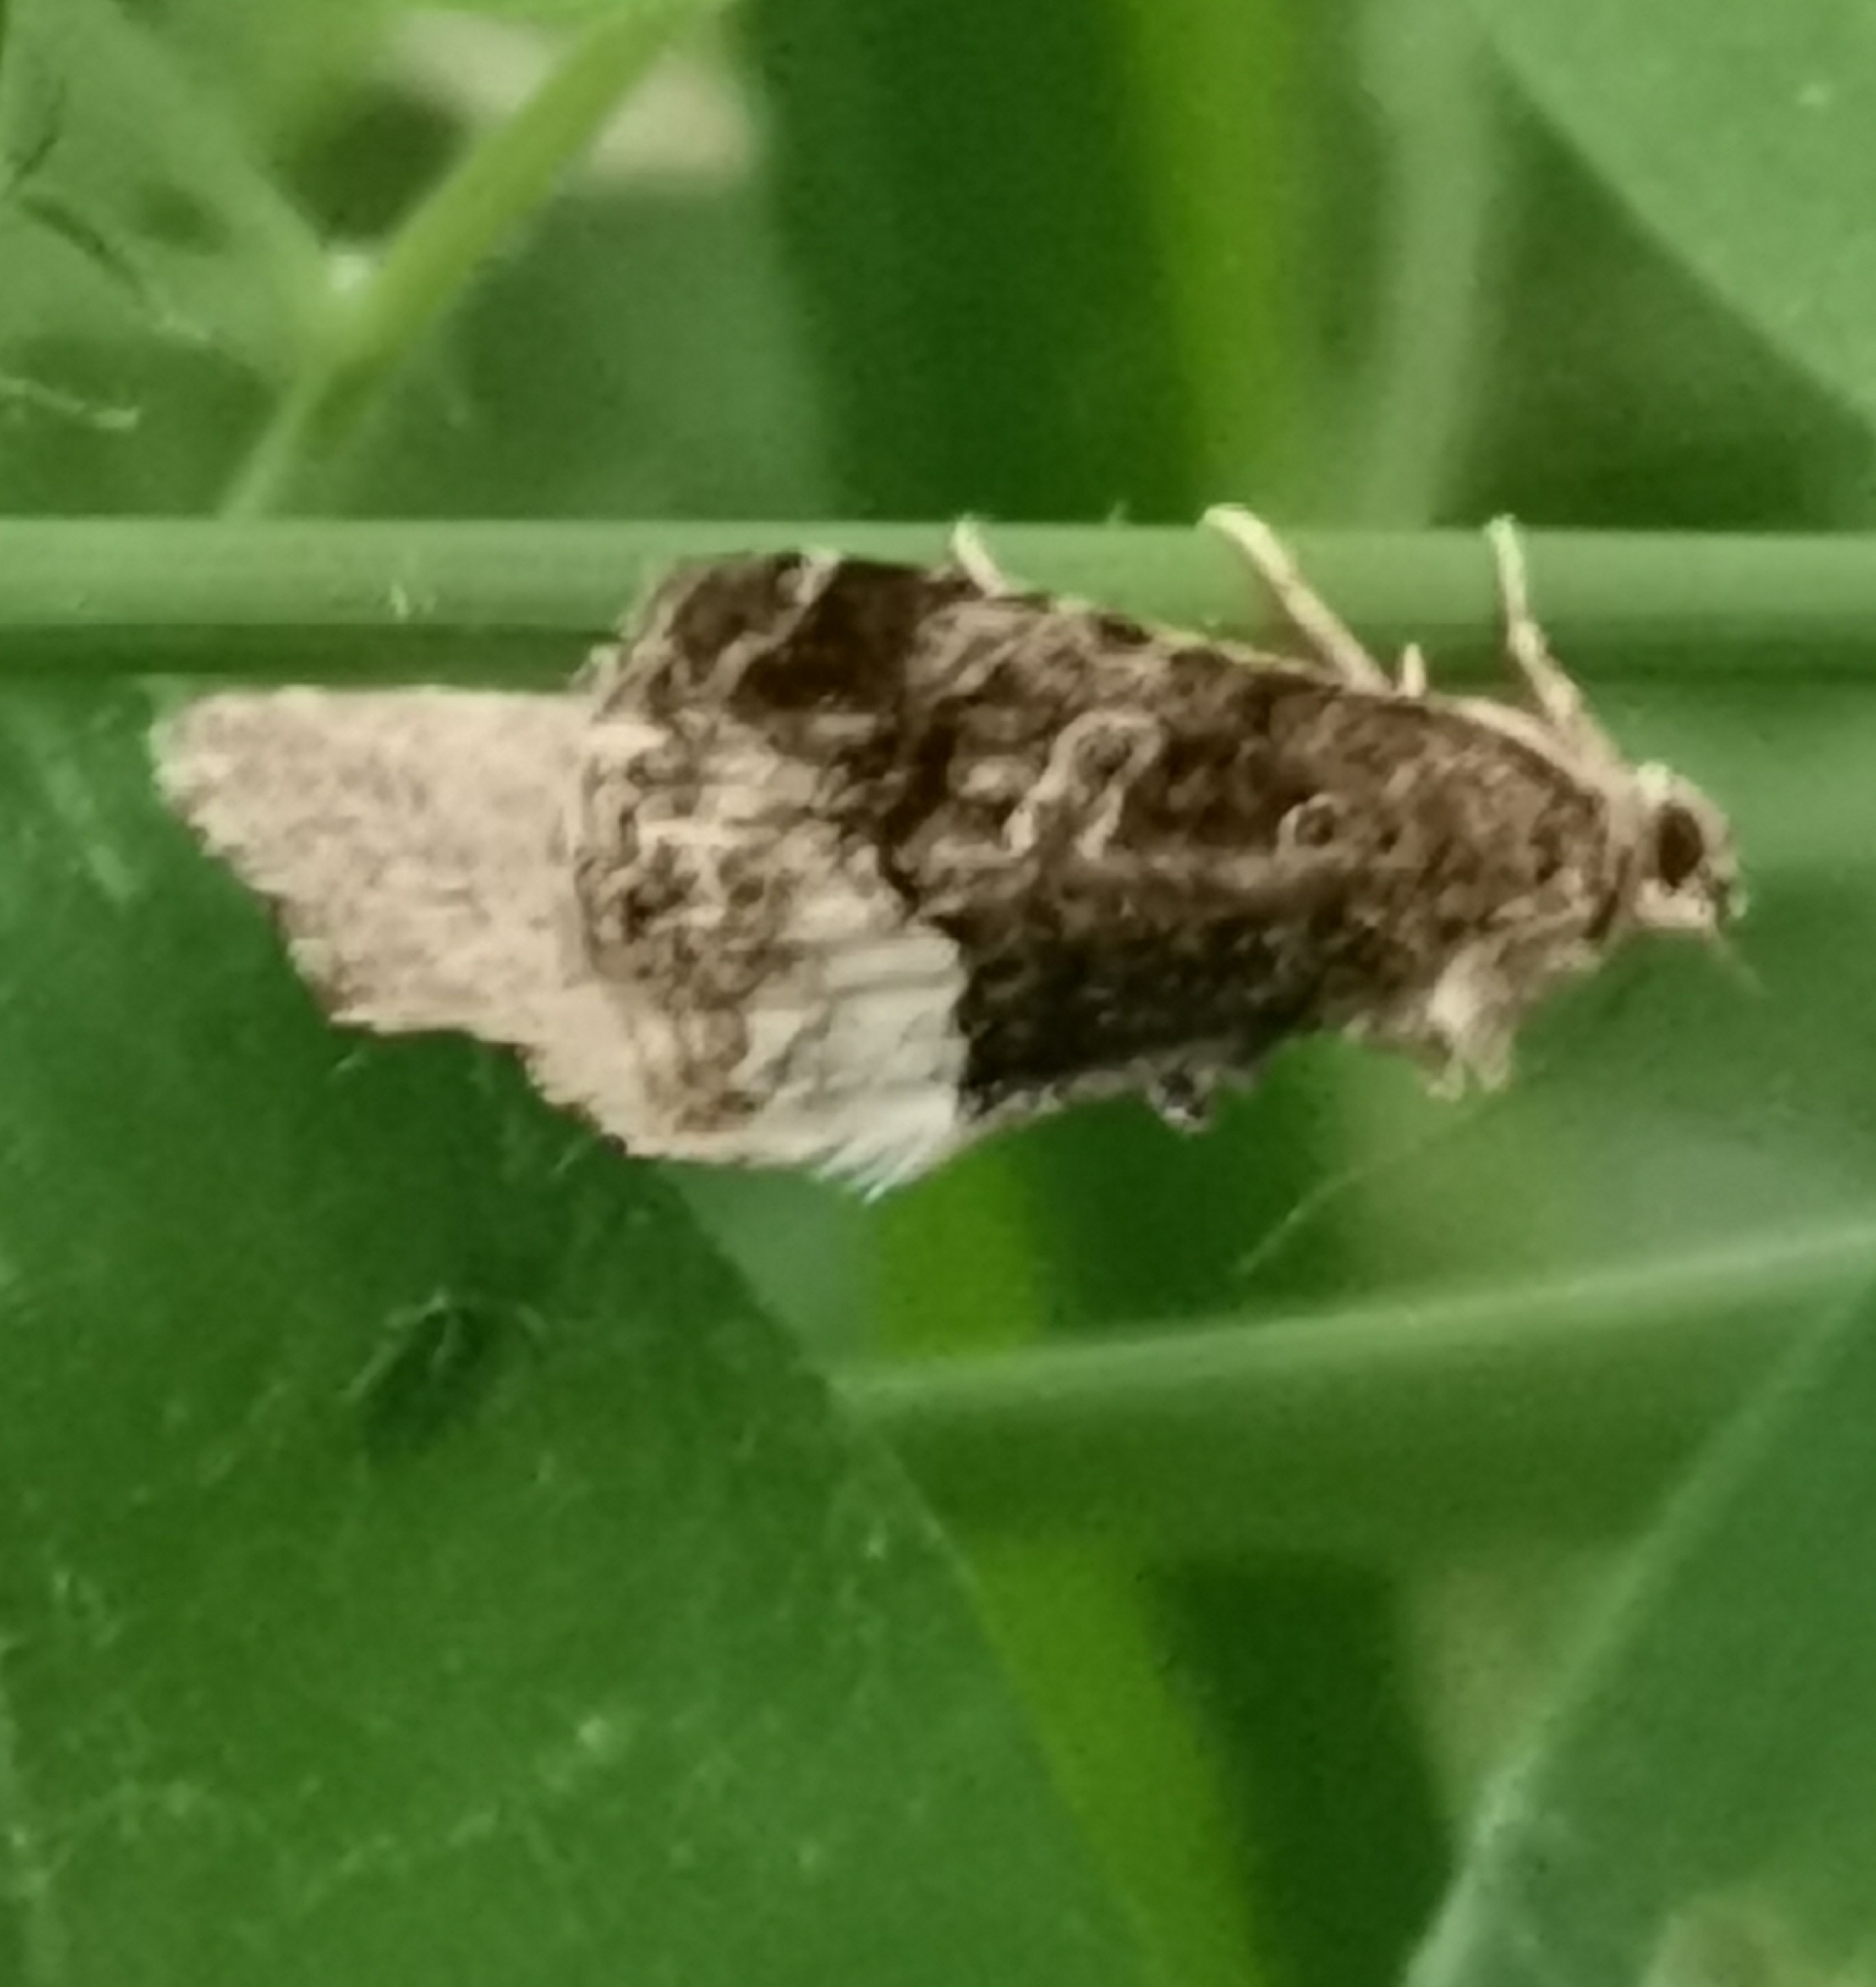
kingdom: Animalia
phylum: Arthropoda
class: Insecta
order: Lepidoptera
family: Noctuidae
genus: Deltote
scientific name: Deltote pygarga
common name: Marbled white spot
